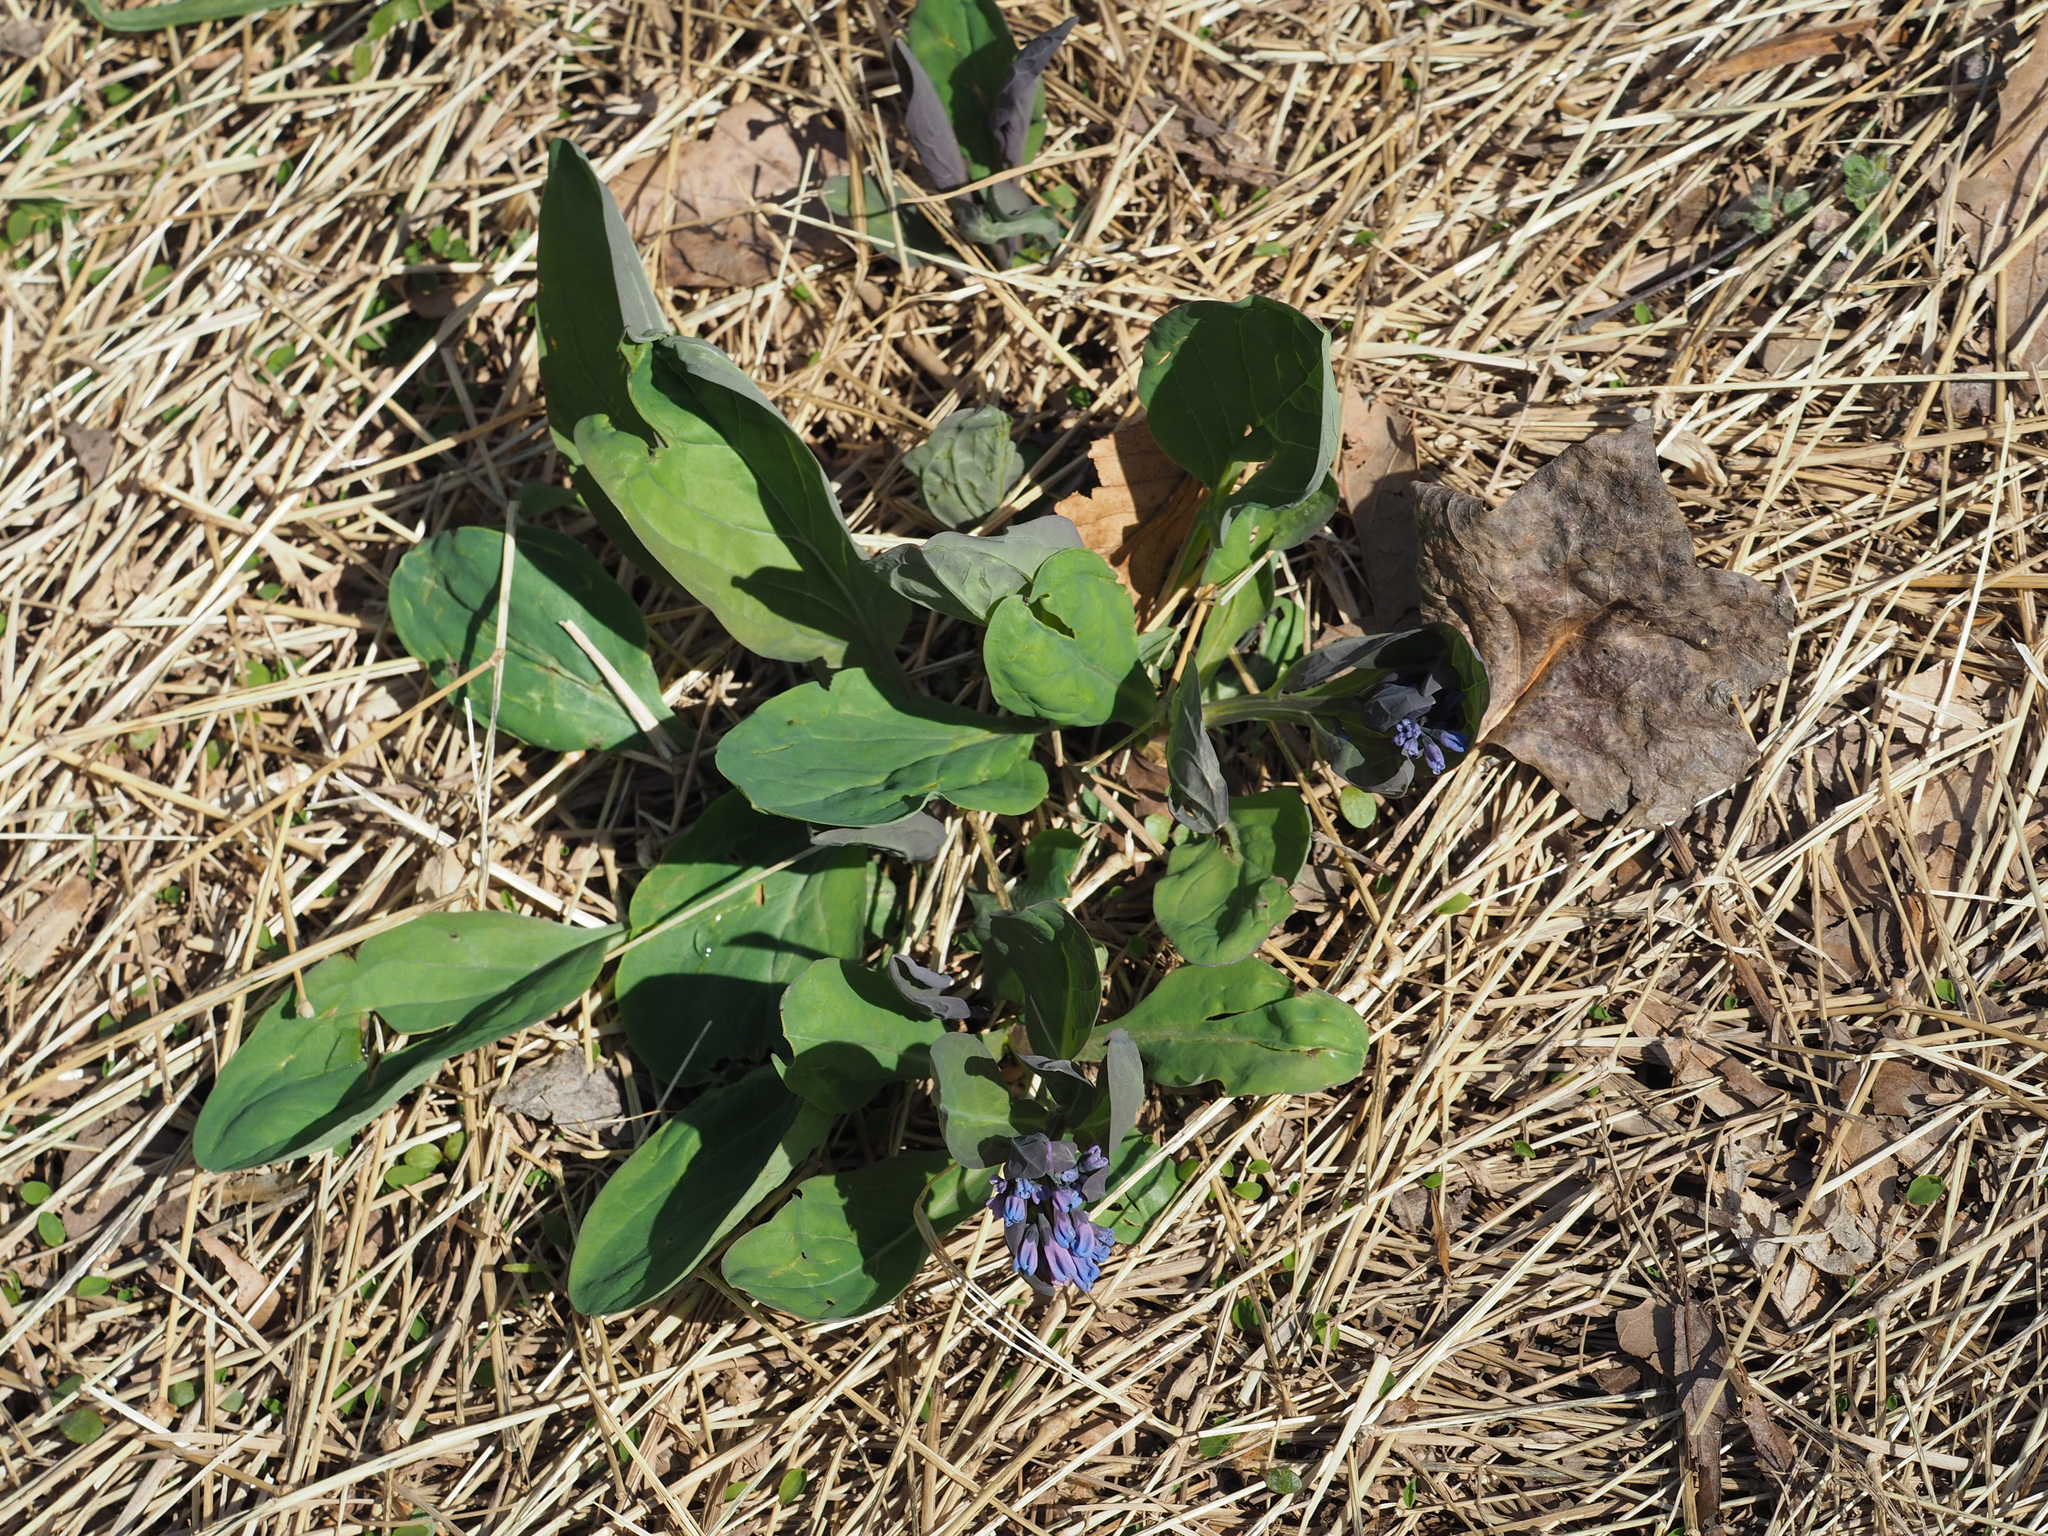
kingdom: Plantae
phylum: Tracheophyta
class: Magnoliopsida
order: Boraginales
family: Boraginaceae
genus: Mertensia
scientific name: Mertensia virginica
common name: Virginia bluebells
